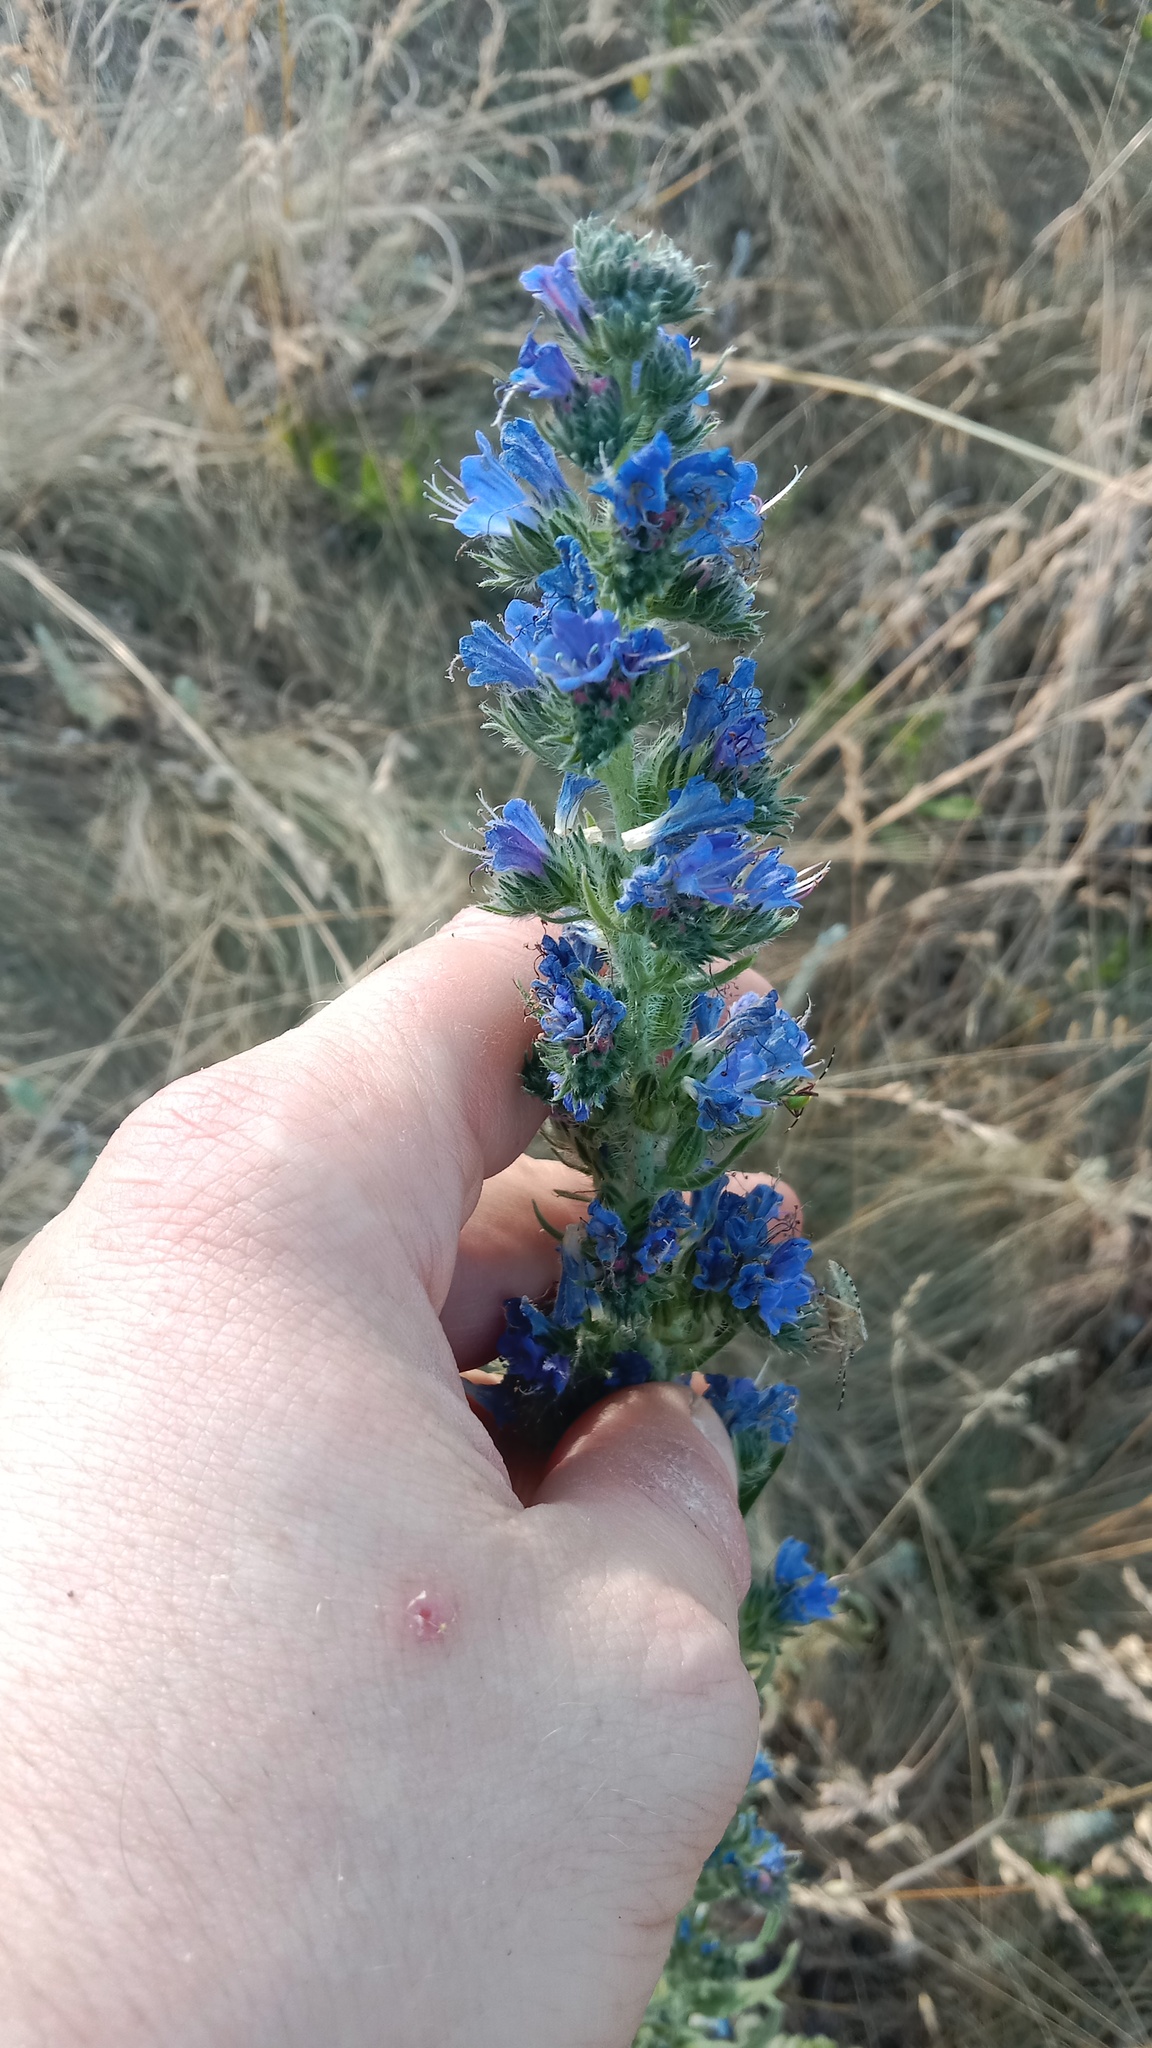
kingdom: Plantae
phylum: Tracheophyta
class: Magnoliopsida
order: Boraginales
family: Boraginaceae
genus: Echium
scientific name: Echium vulgare
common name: Common viper's bugloss
